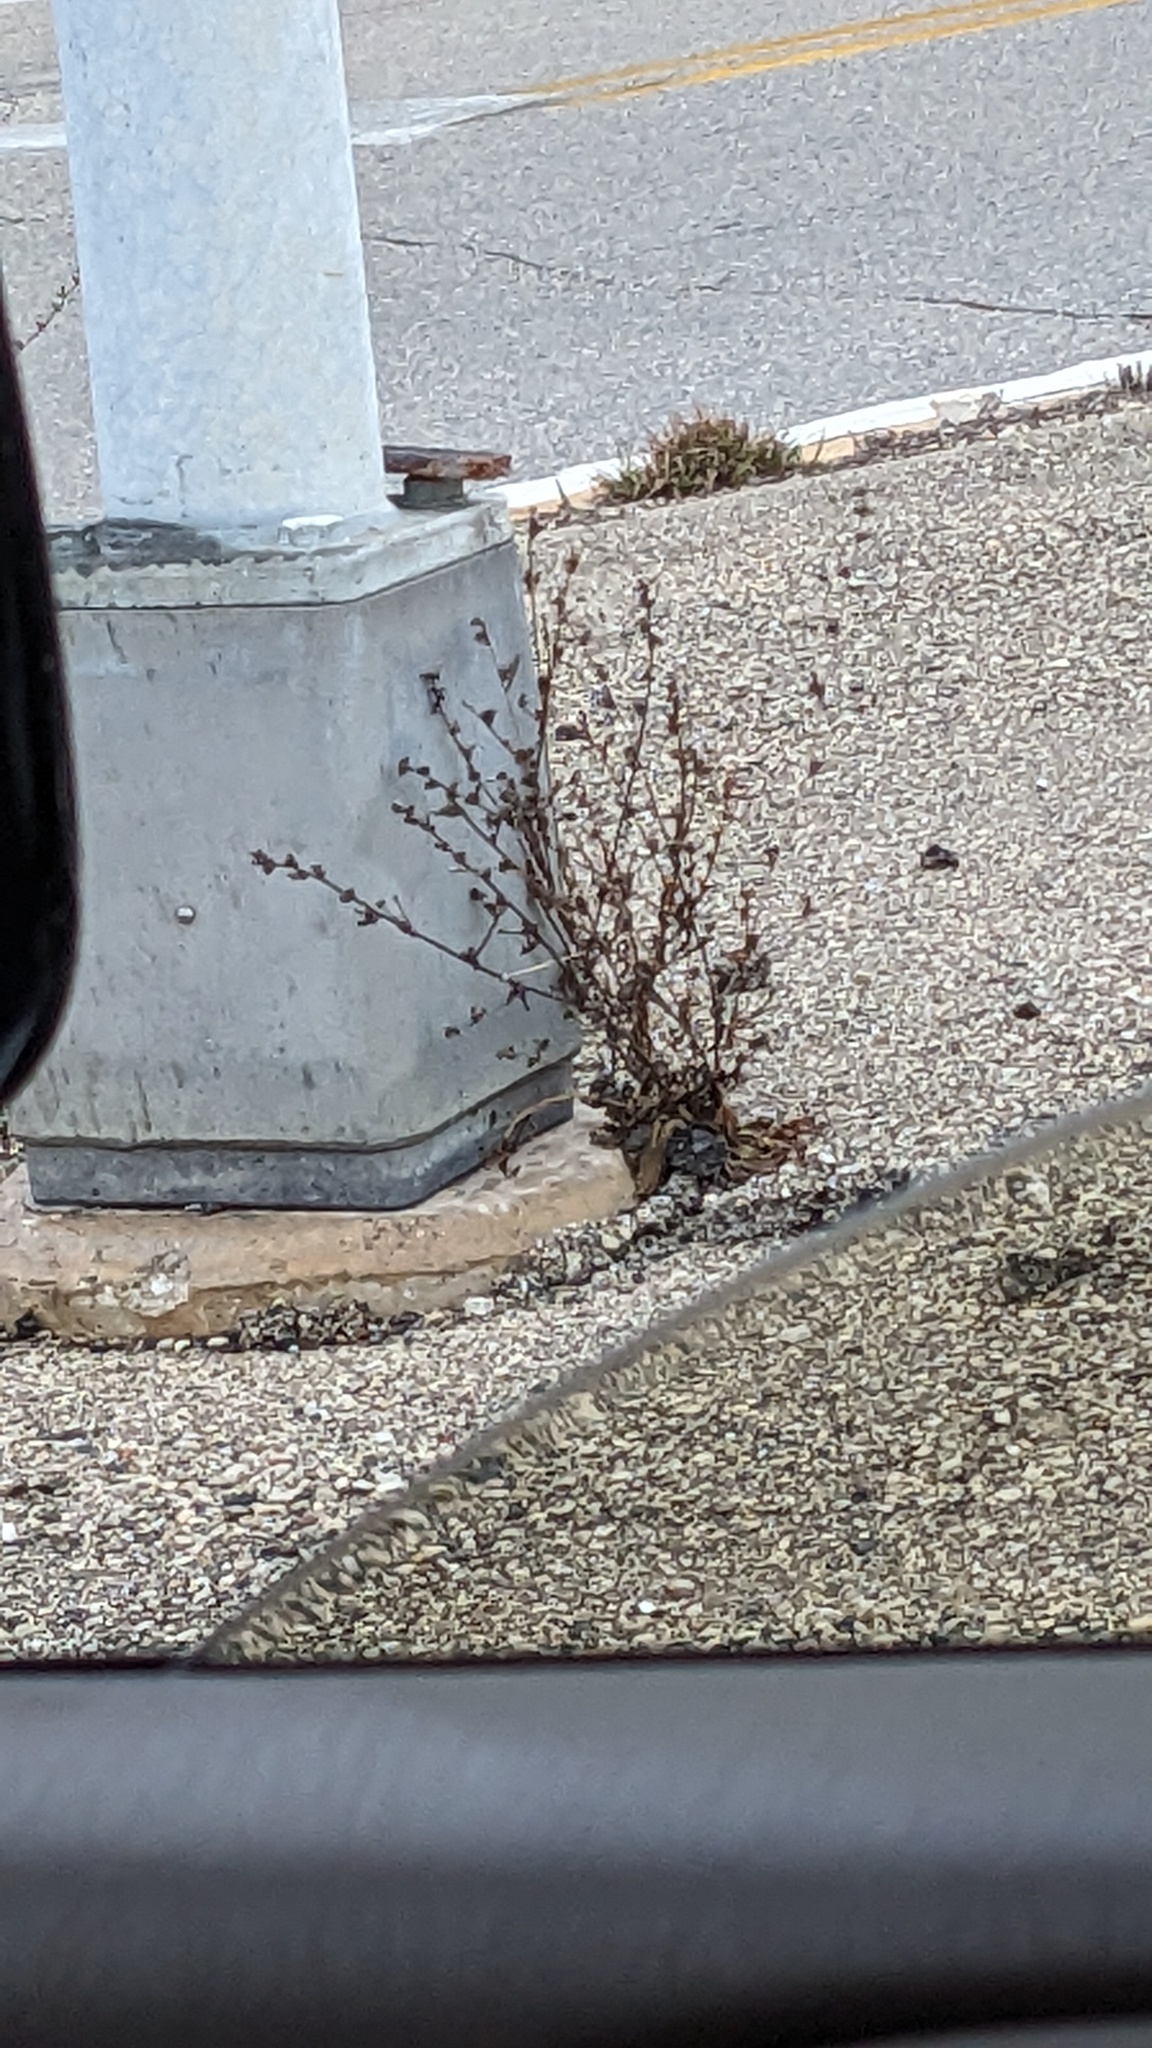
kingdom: Plantae
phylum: Tracheophyta
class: Magnoliopsida
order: Asterales
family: Asteraceae
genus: Cichorium
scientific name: Cichorium intybus
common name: Chicory
